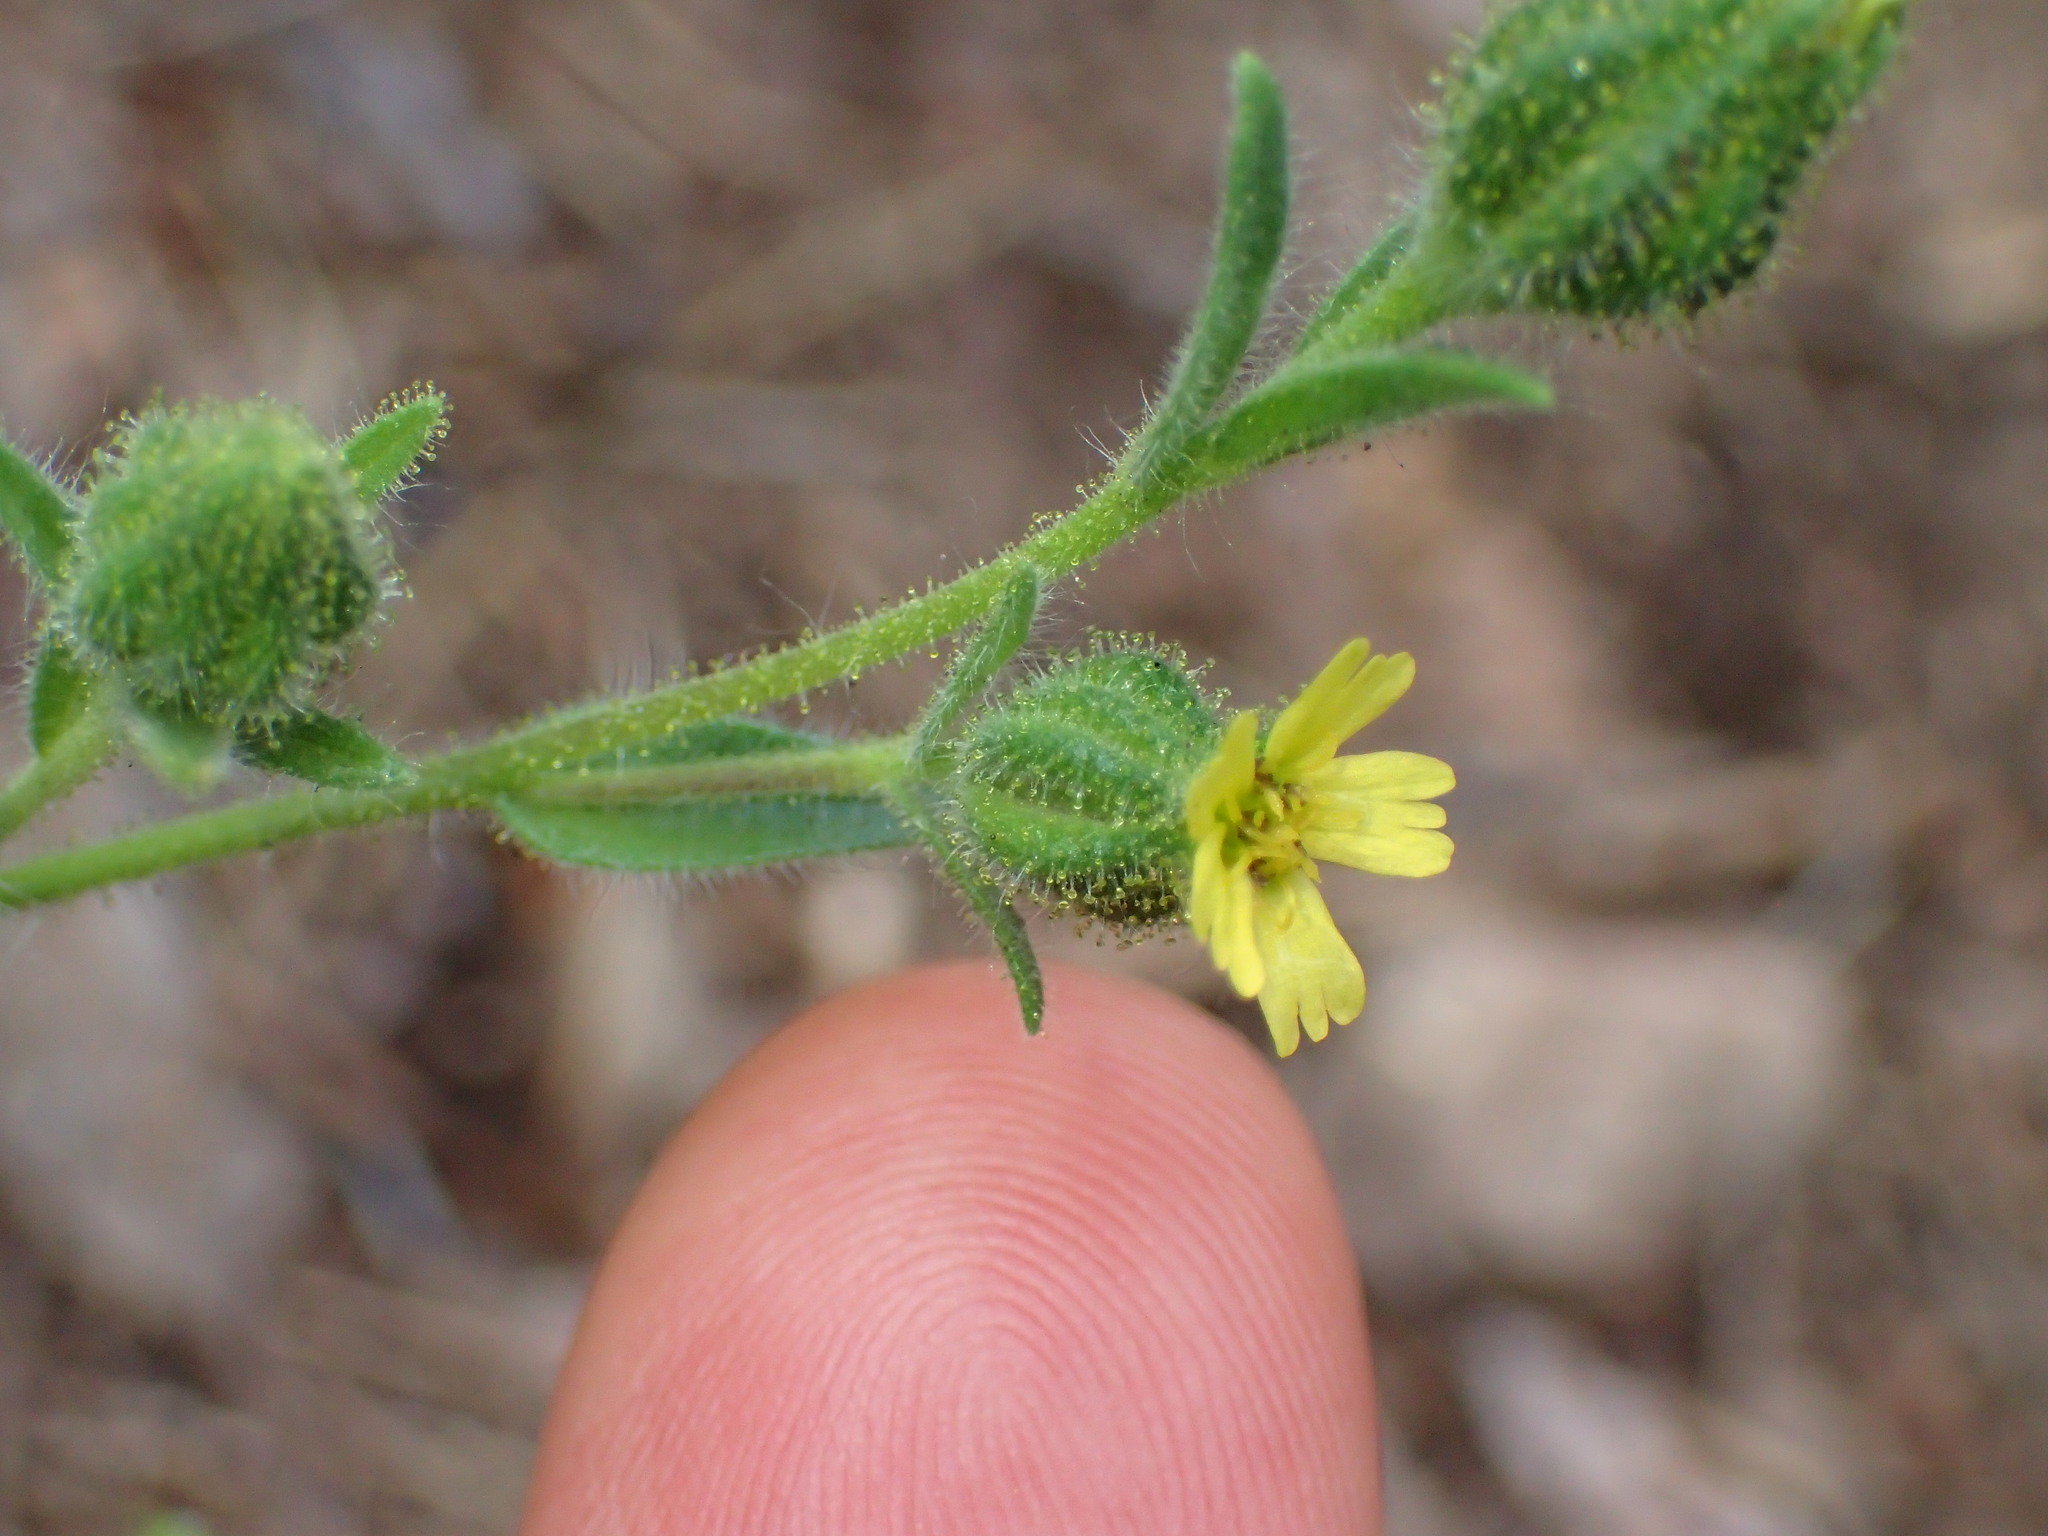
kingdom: Plantae
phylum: Tracheophyta
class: Magnoliopsida
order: Asterales
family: Asteraceae
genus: Madia
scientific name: Madia gracilis
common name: Grassy tarweed
